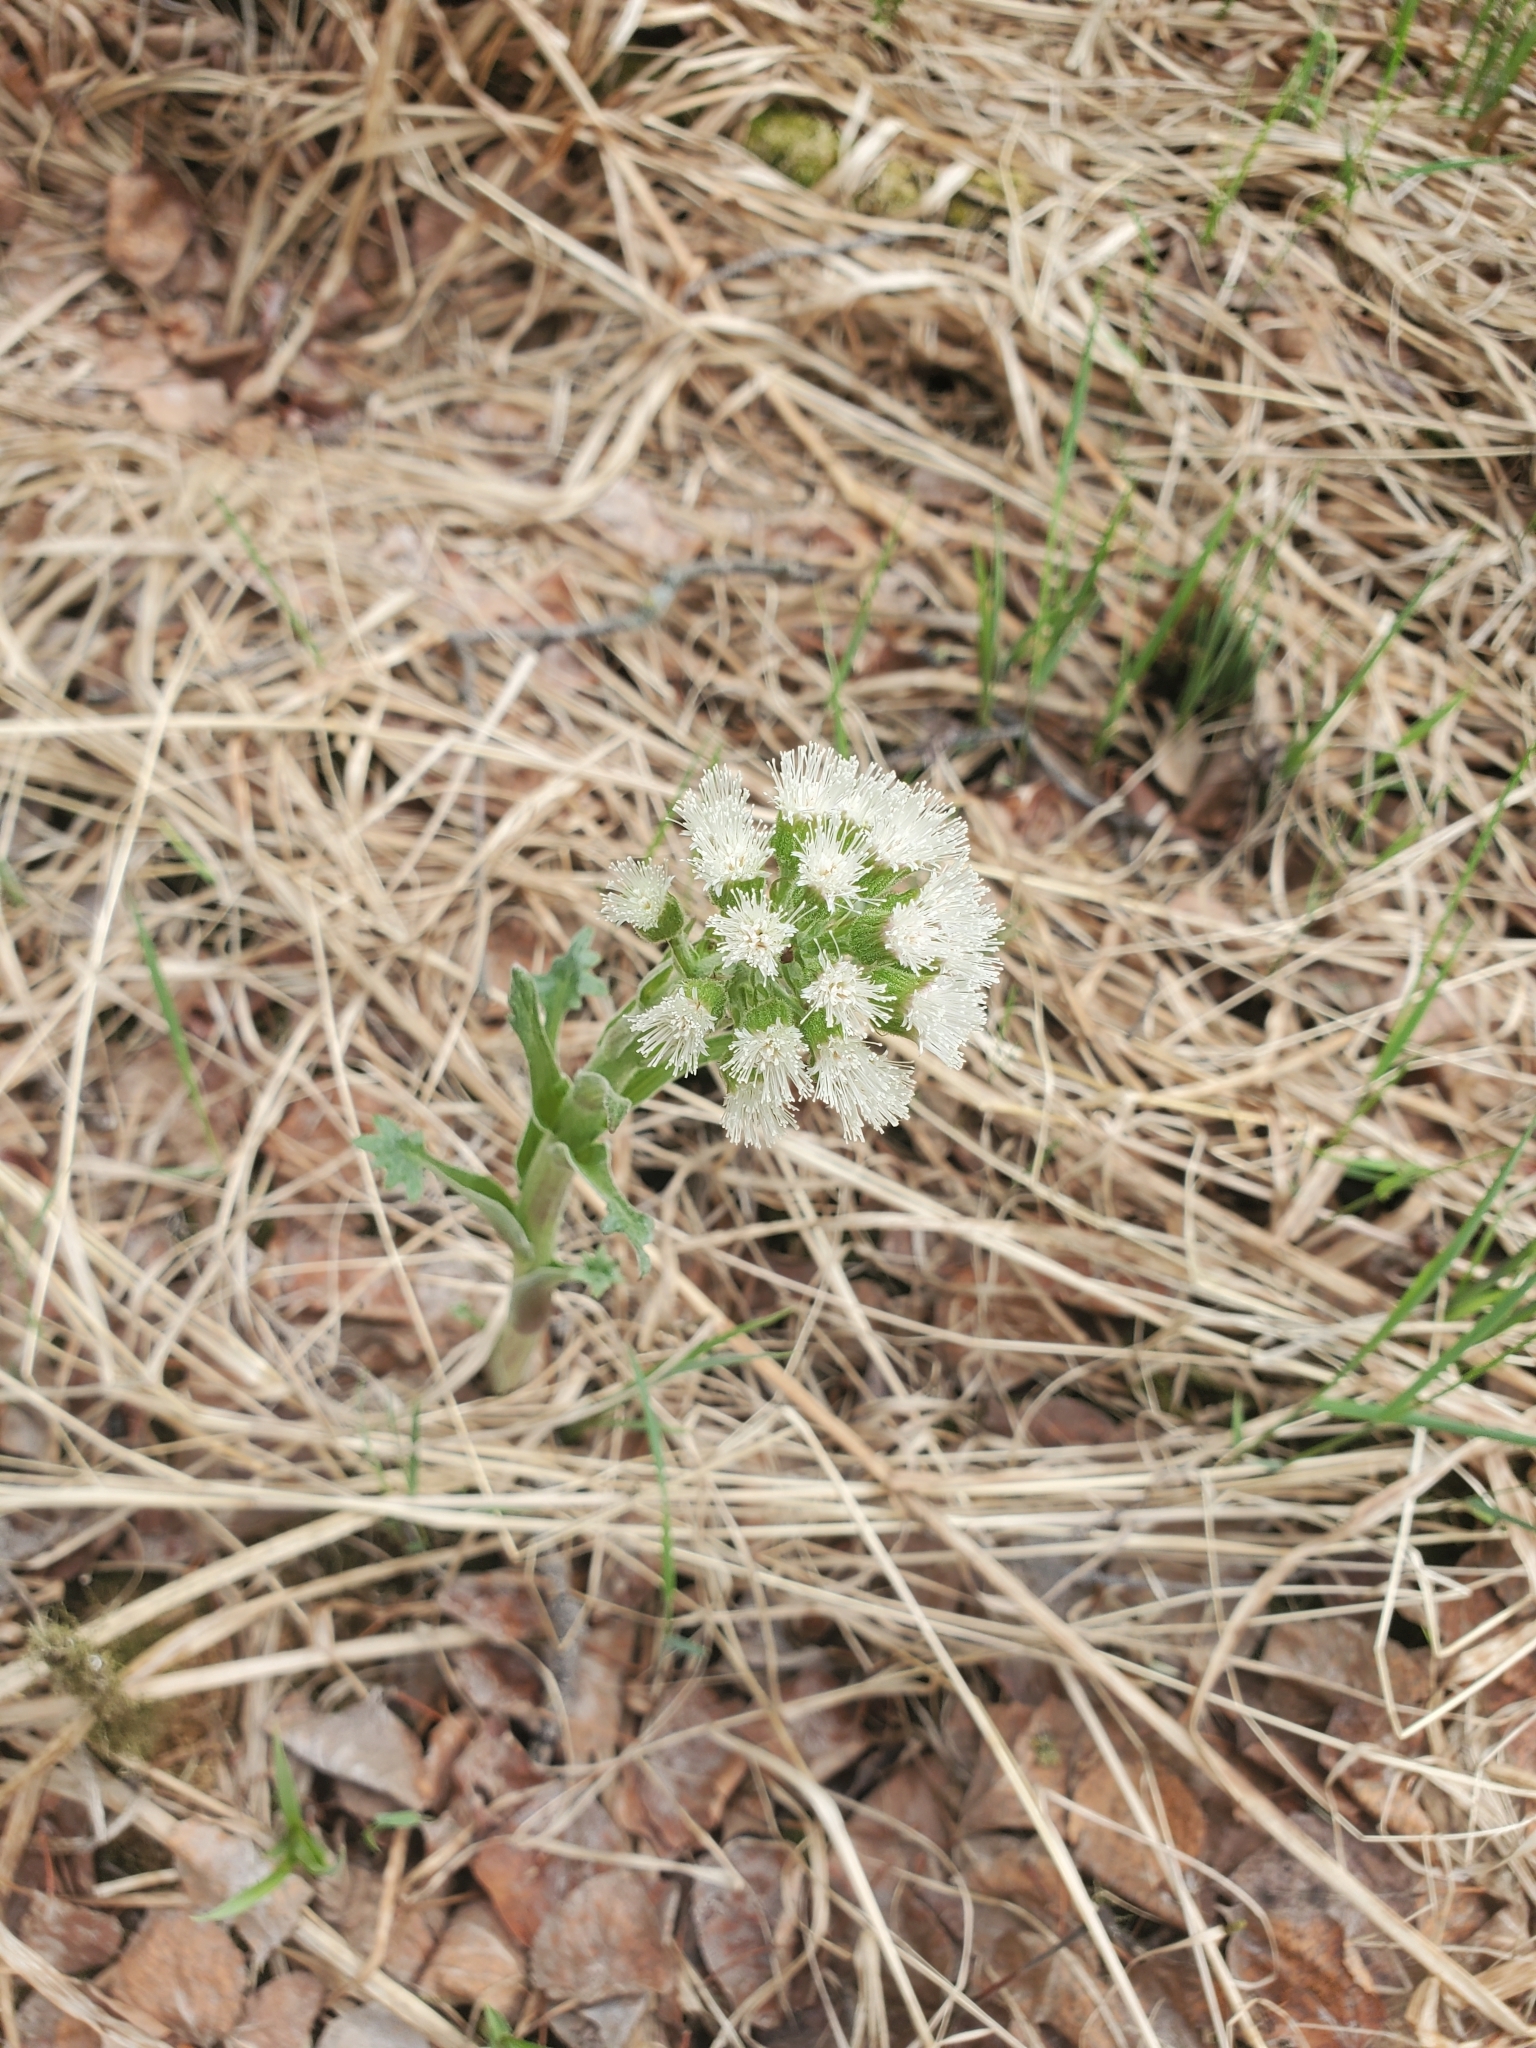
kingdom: Plantae
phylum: Tracheophyta
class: Magnoliopsida
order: Asterales
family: Asteraceae
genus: Petasites
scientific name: Petasites frigidus
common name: Arctic butterbur
